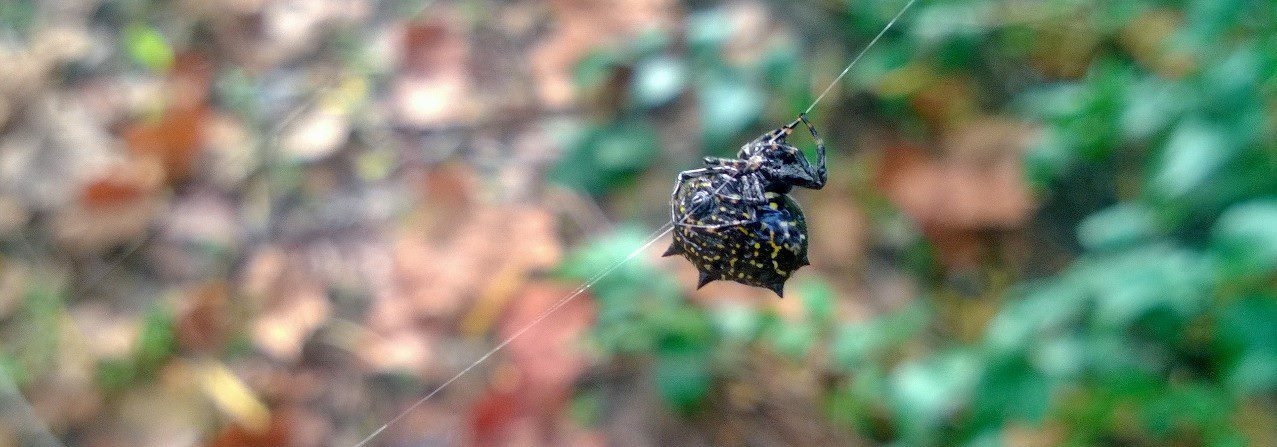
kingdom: Animalia
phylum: Arthropoda
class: Arachnida
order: Araneae
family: Araneidae
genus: Gasteracantha
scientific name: Gasteracantha cancriformis
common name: Orb weavers
